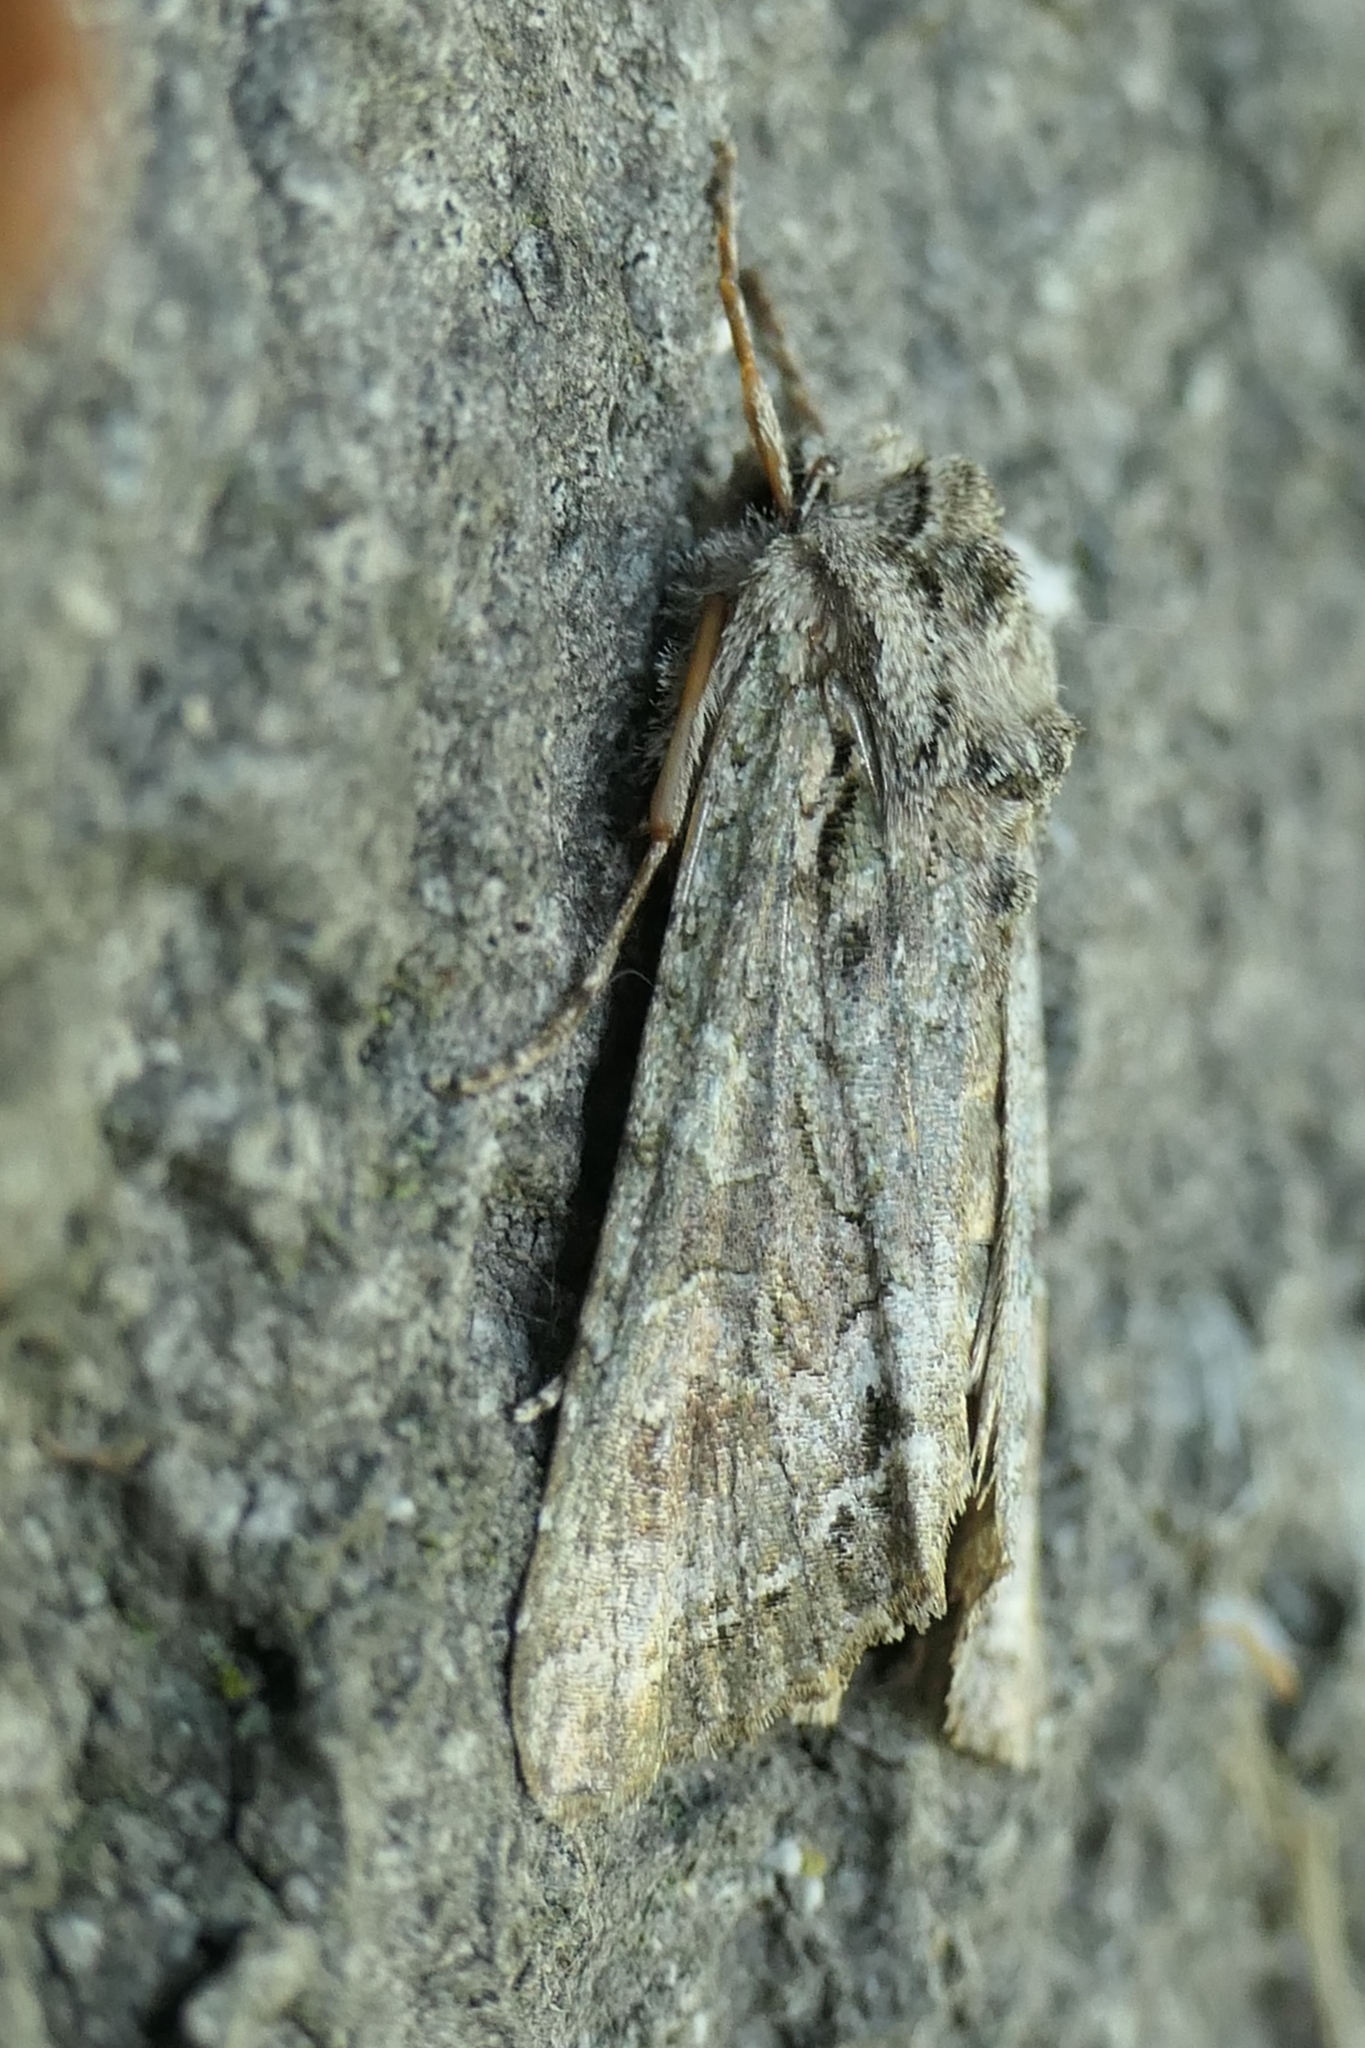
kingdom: Animalia
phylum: Arthropoda
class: Insecta
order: Lepidoptera
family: Noctuidae
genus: Ichneutica
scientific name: Ichneutica mutans
